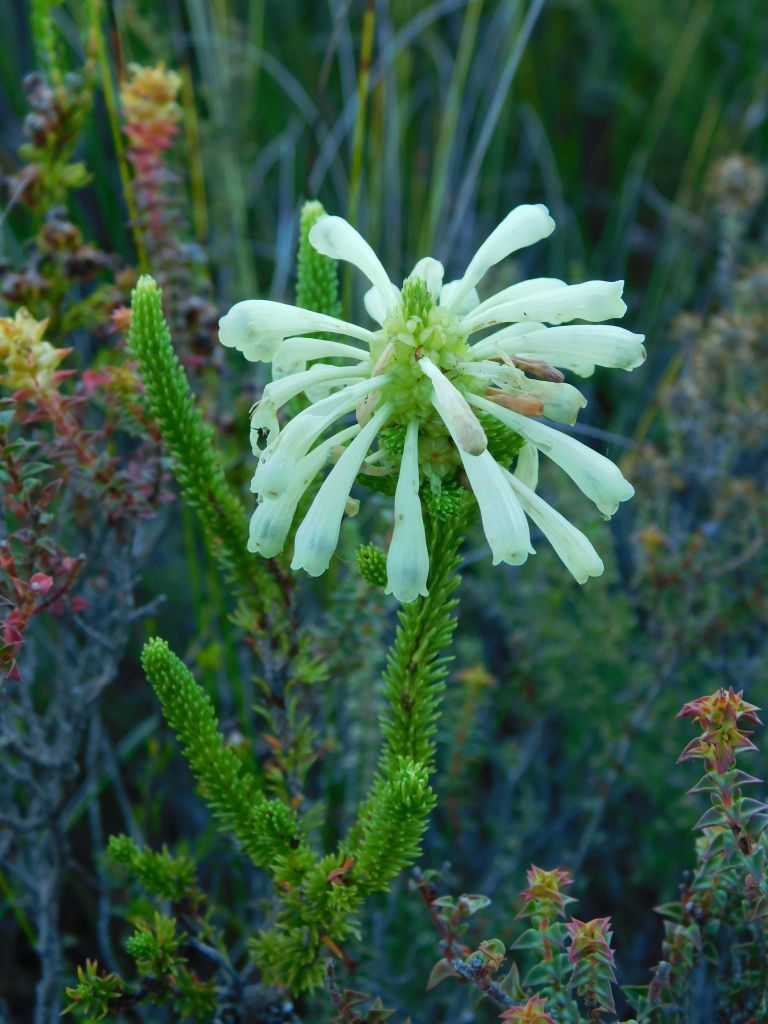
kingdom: Plantae
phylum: Tracheophyta
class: Magnoliopsida
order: Ericales
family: Ericaceae
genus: Erica
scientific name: Erica sessiliflora
